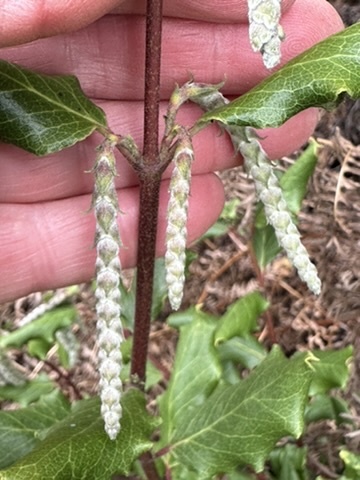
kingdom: Plantae
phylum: Tracheophyta
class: Magnoliopsida
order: Garryales
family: Garryaceae
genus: Garrya
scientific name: Garrya elliptica
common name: Silk-tassel
